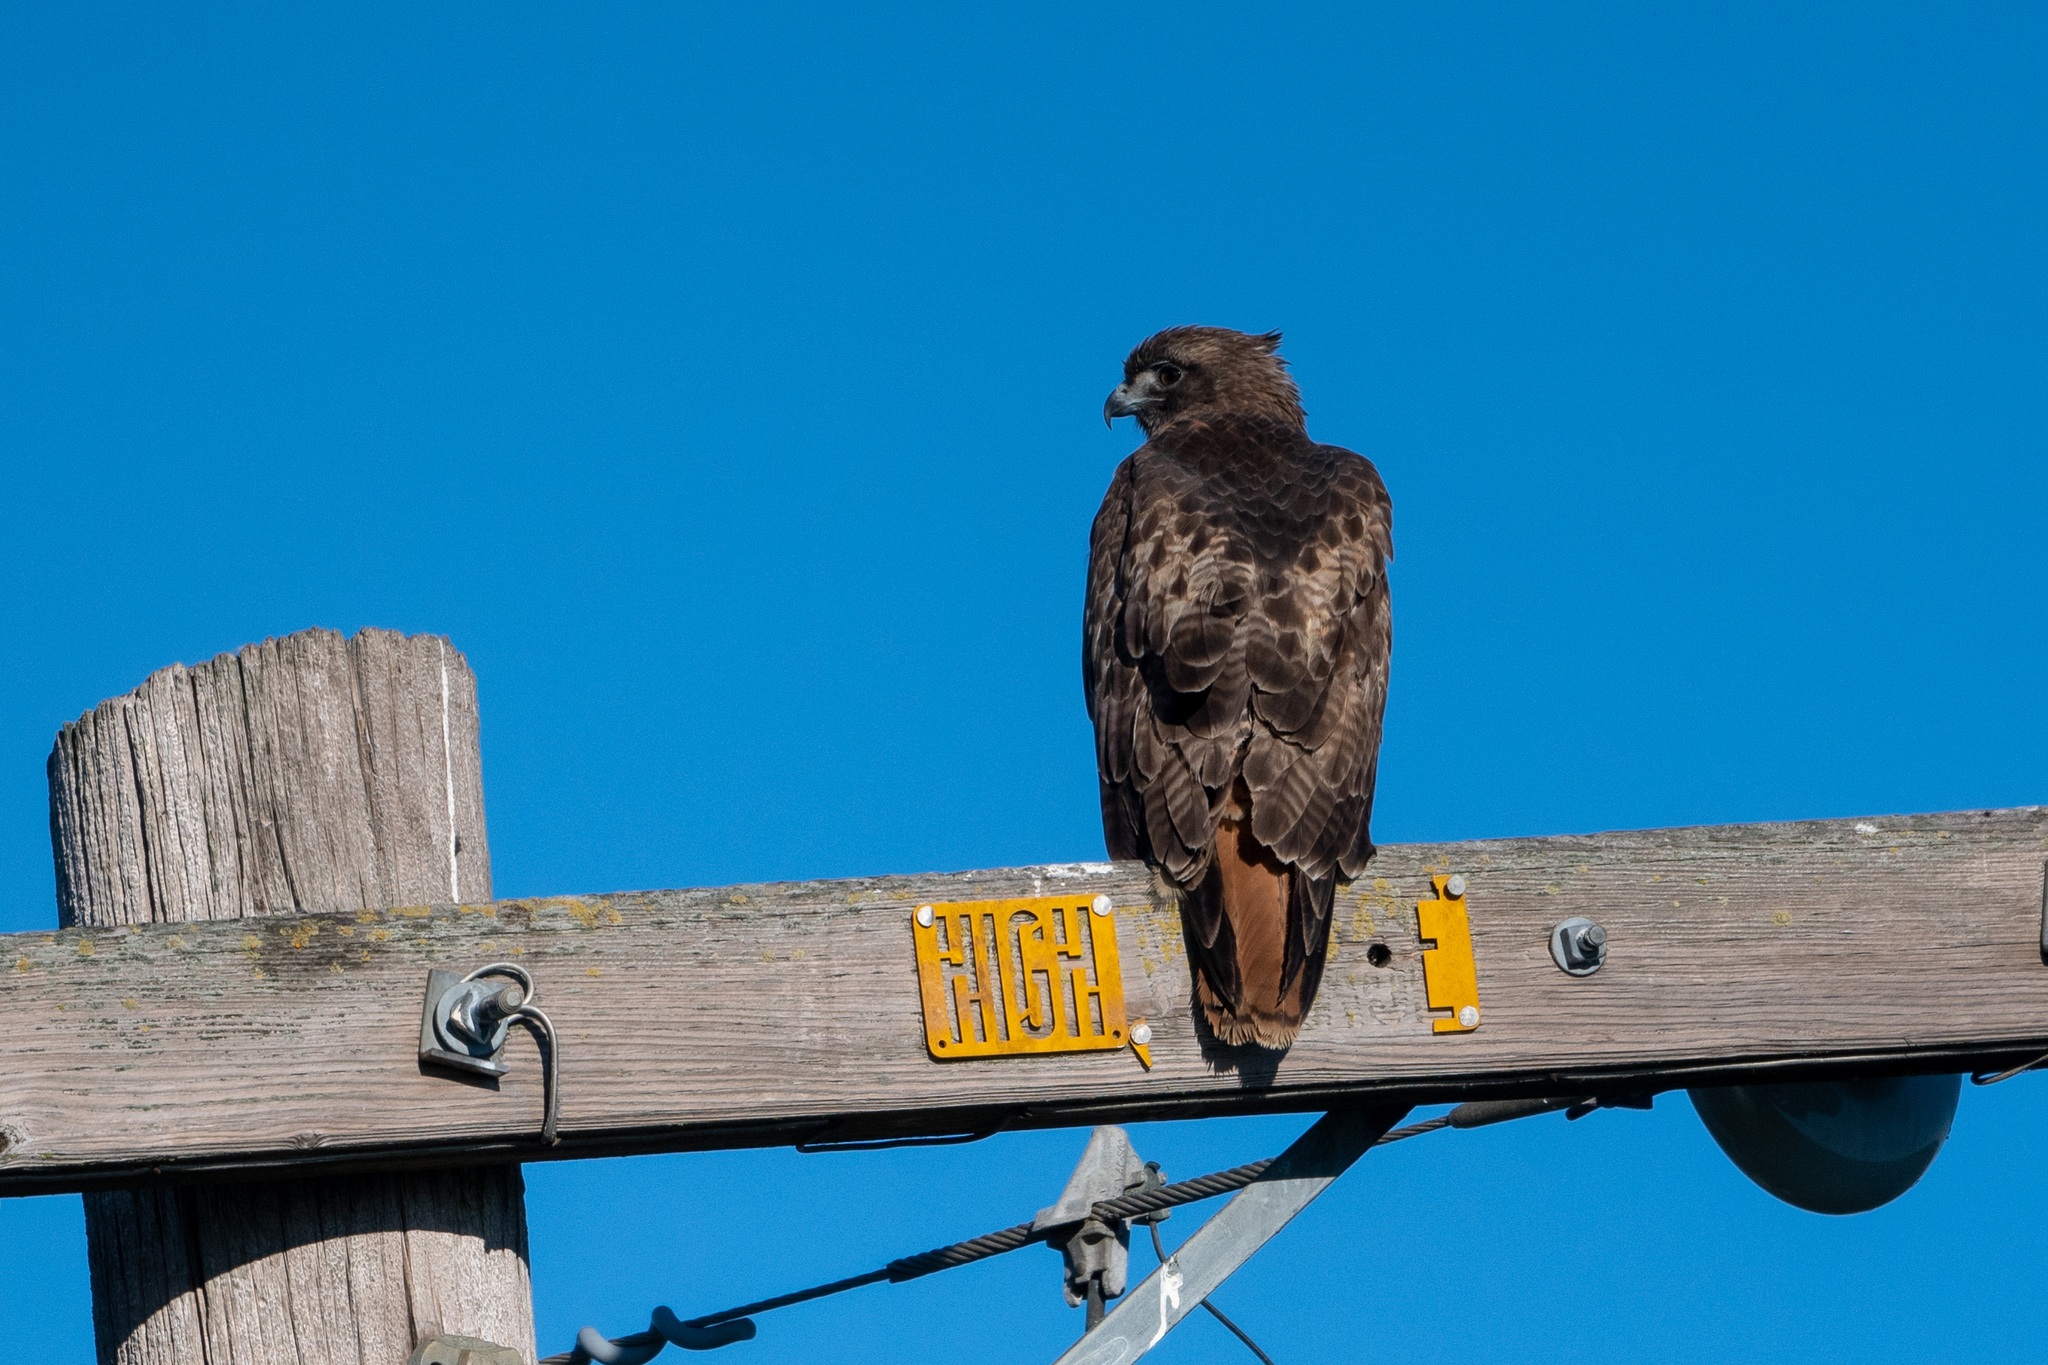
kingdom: Animalia
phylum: Chordata
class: Aves
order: Accipitriformes
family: Accipitridae
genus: Buteo
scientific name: Buteo jamaicensis
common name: Red-tailed hawk
